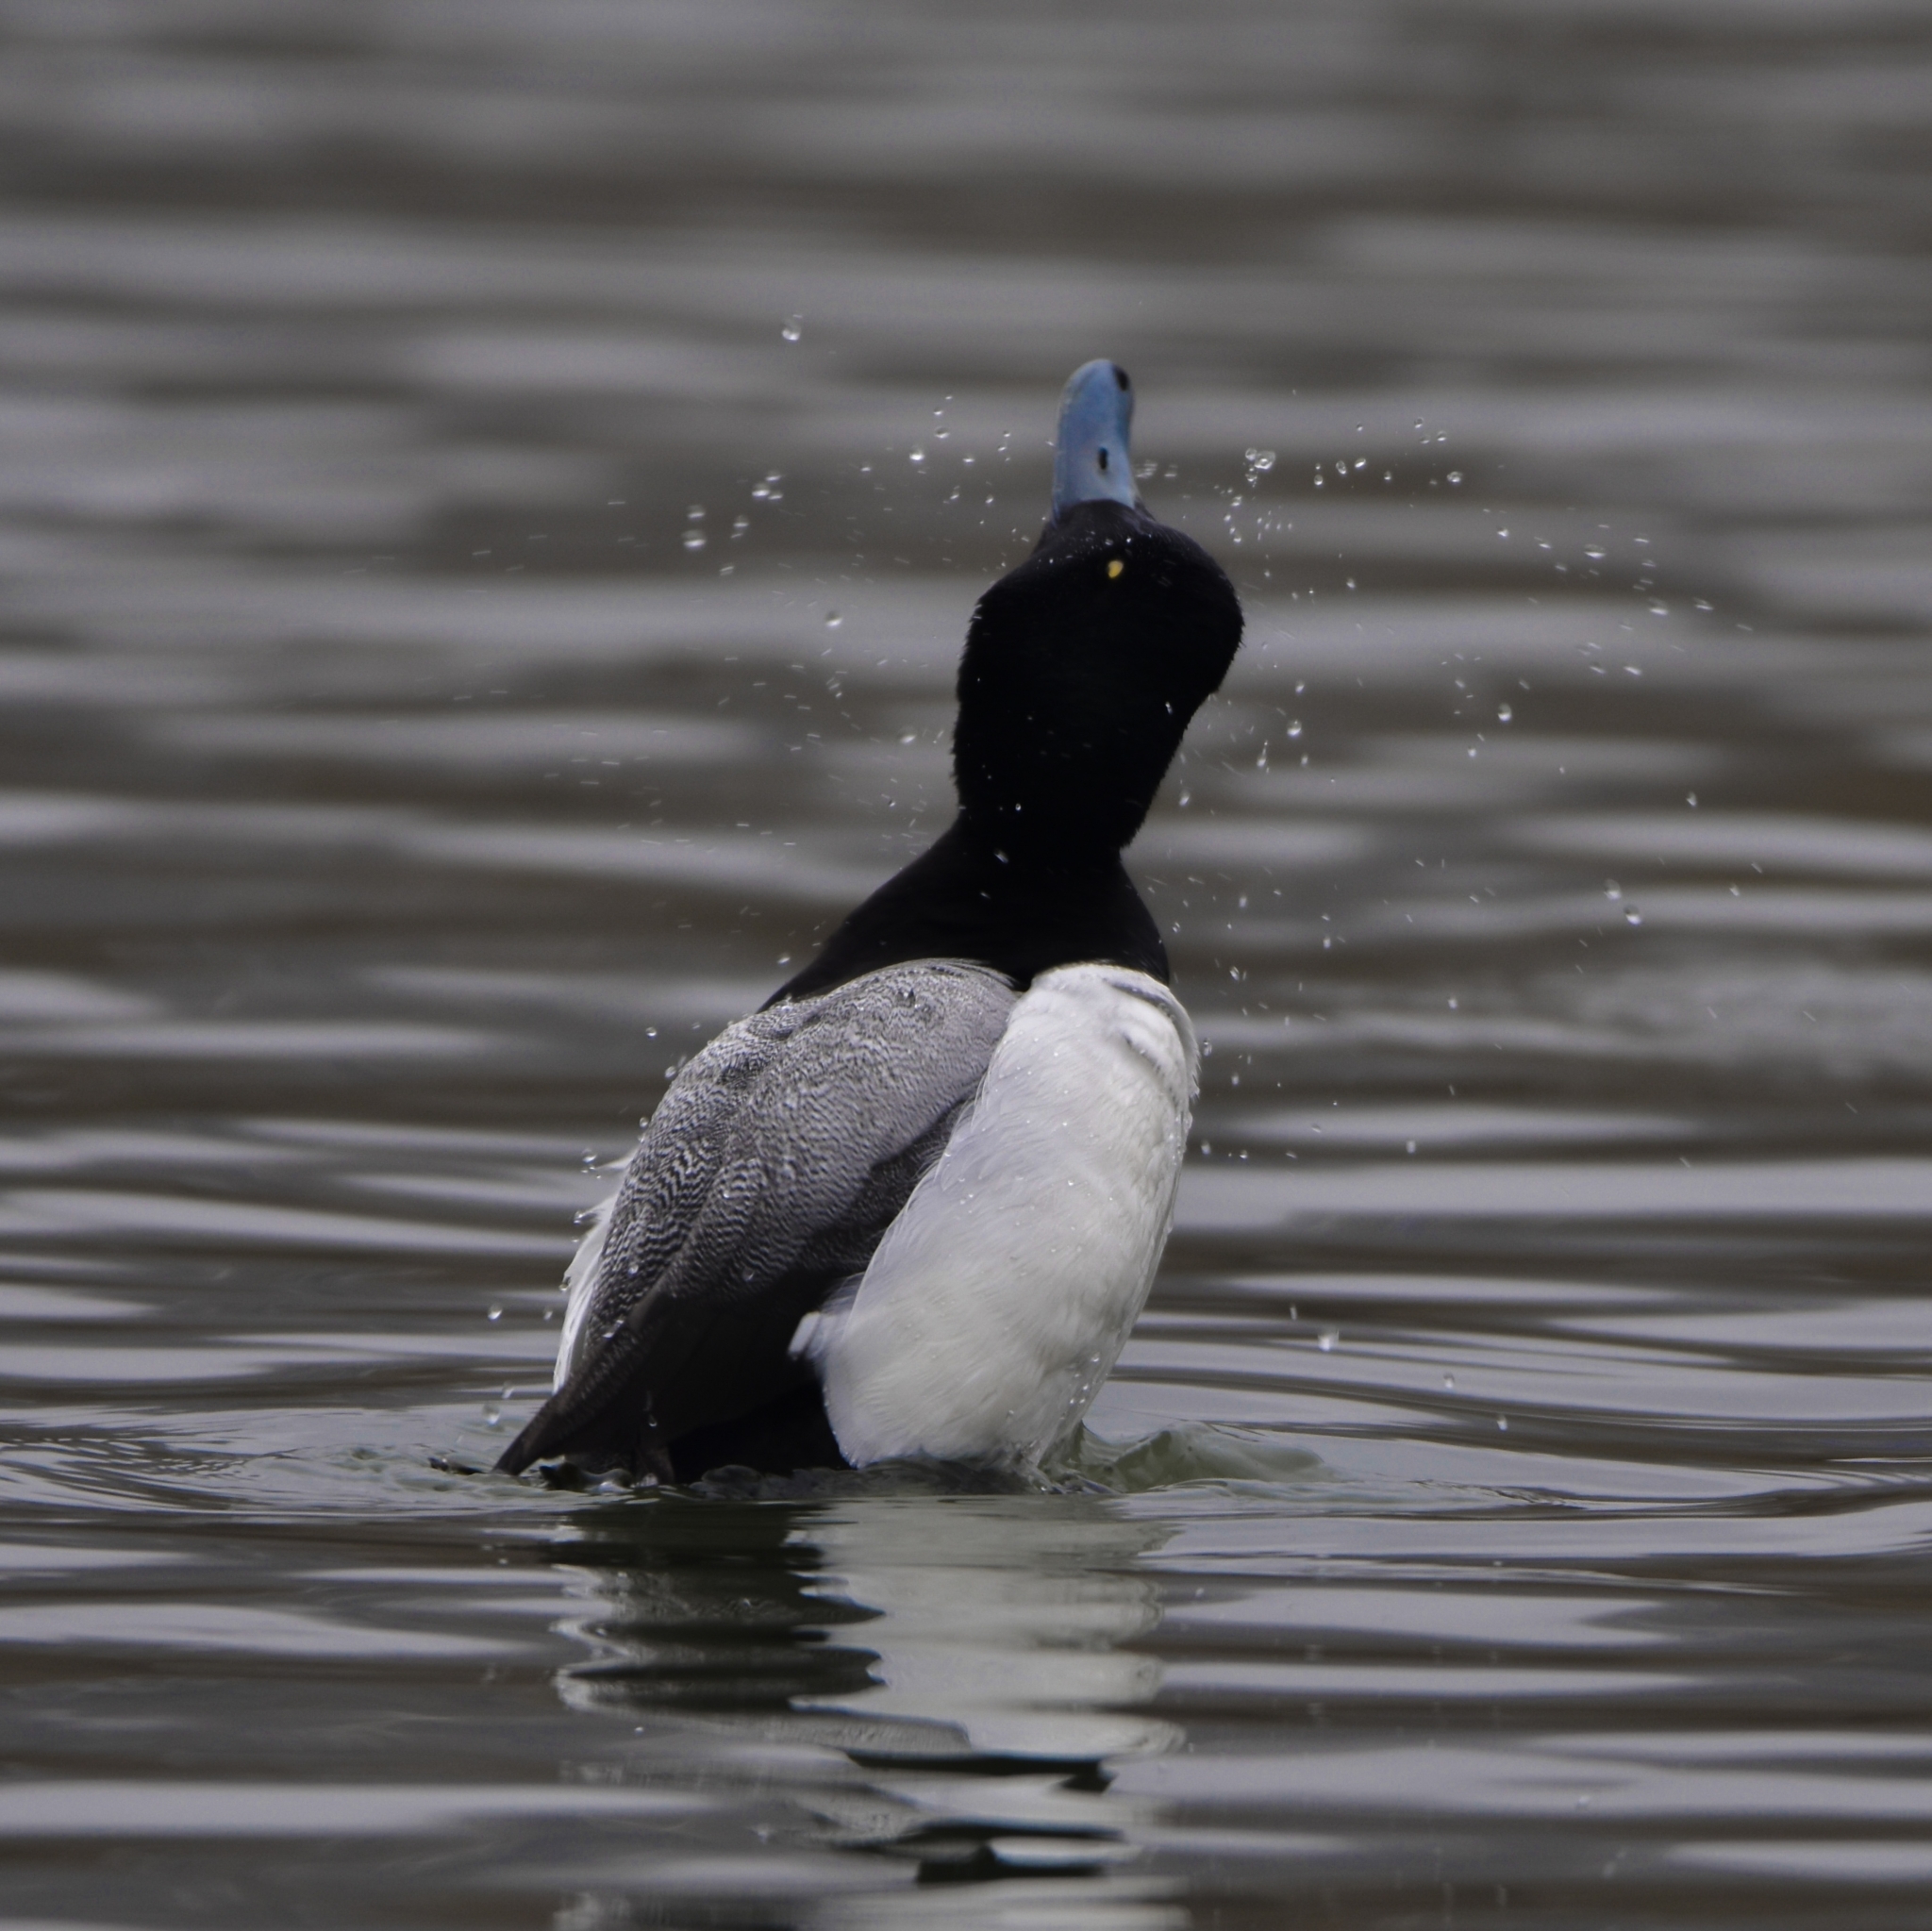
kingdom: Animalia
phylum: Chordata
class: Aves
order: Anseriformes
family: Anatidae
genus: Aythya
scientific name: Aythya marila
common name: Greater scaup
